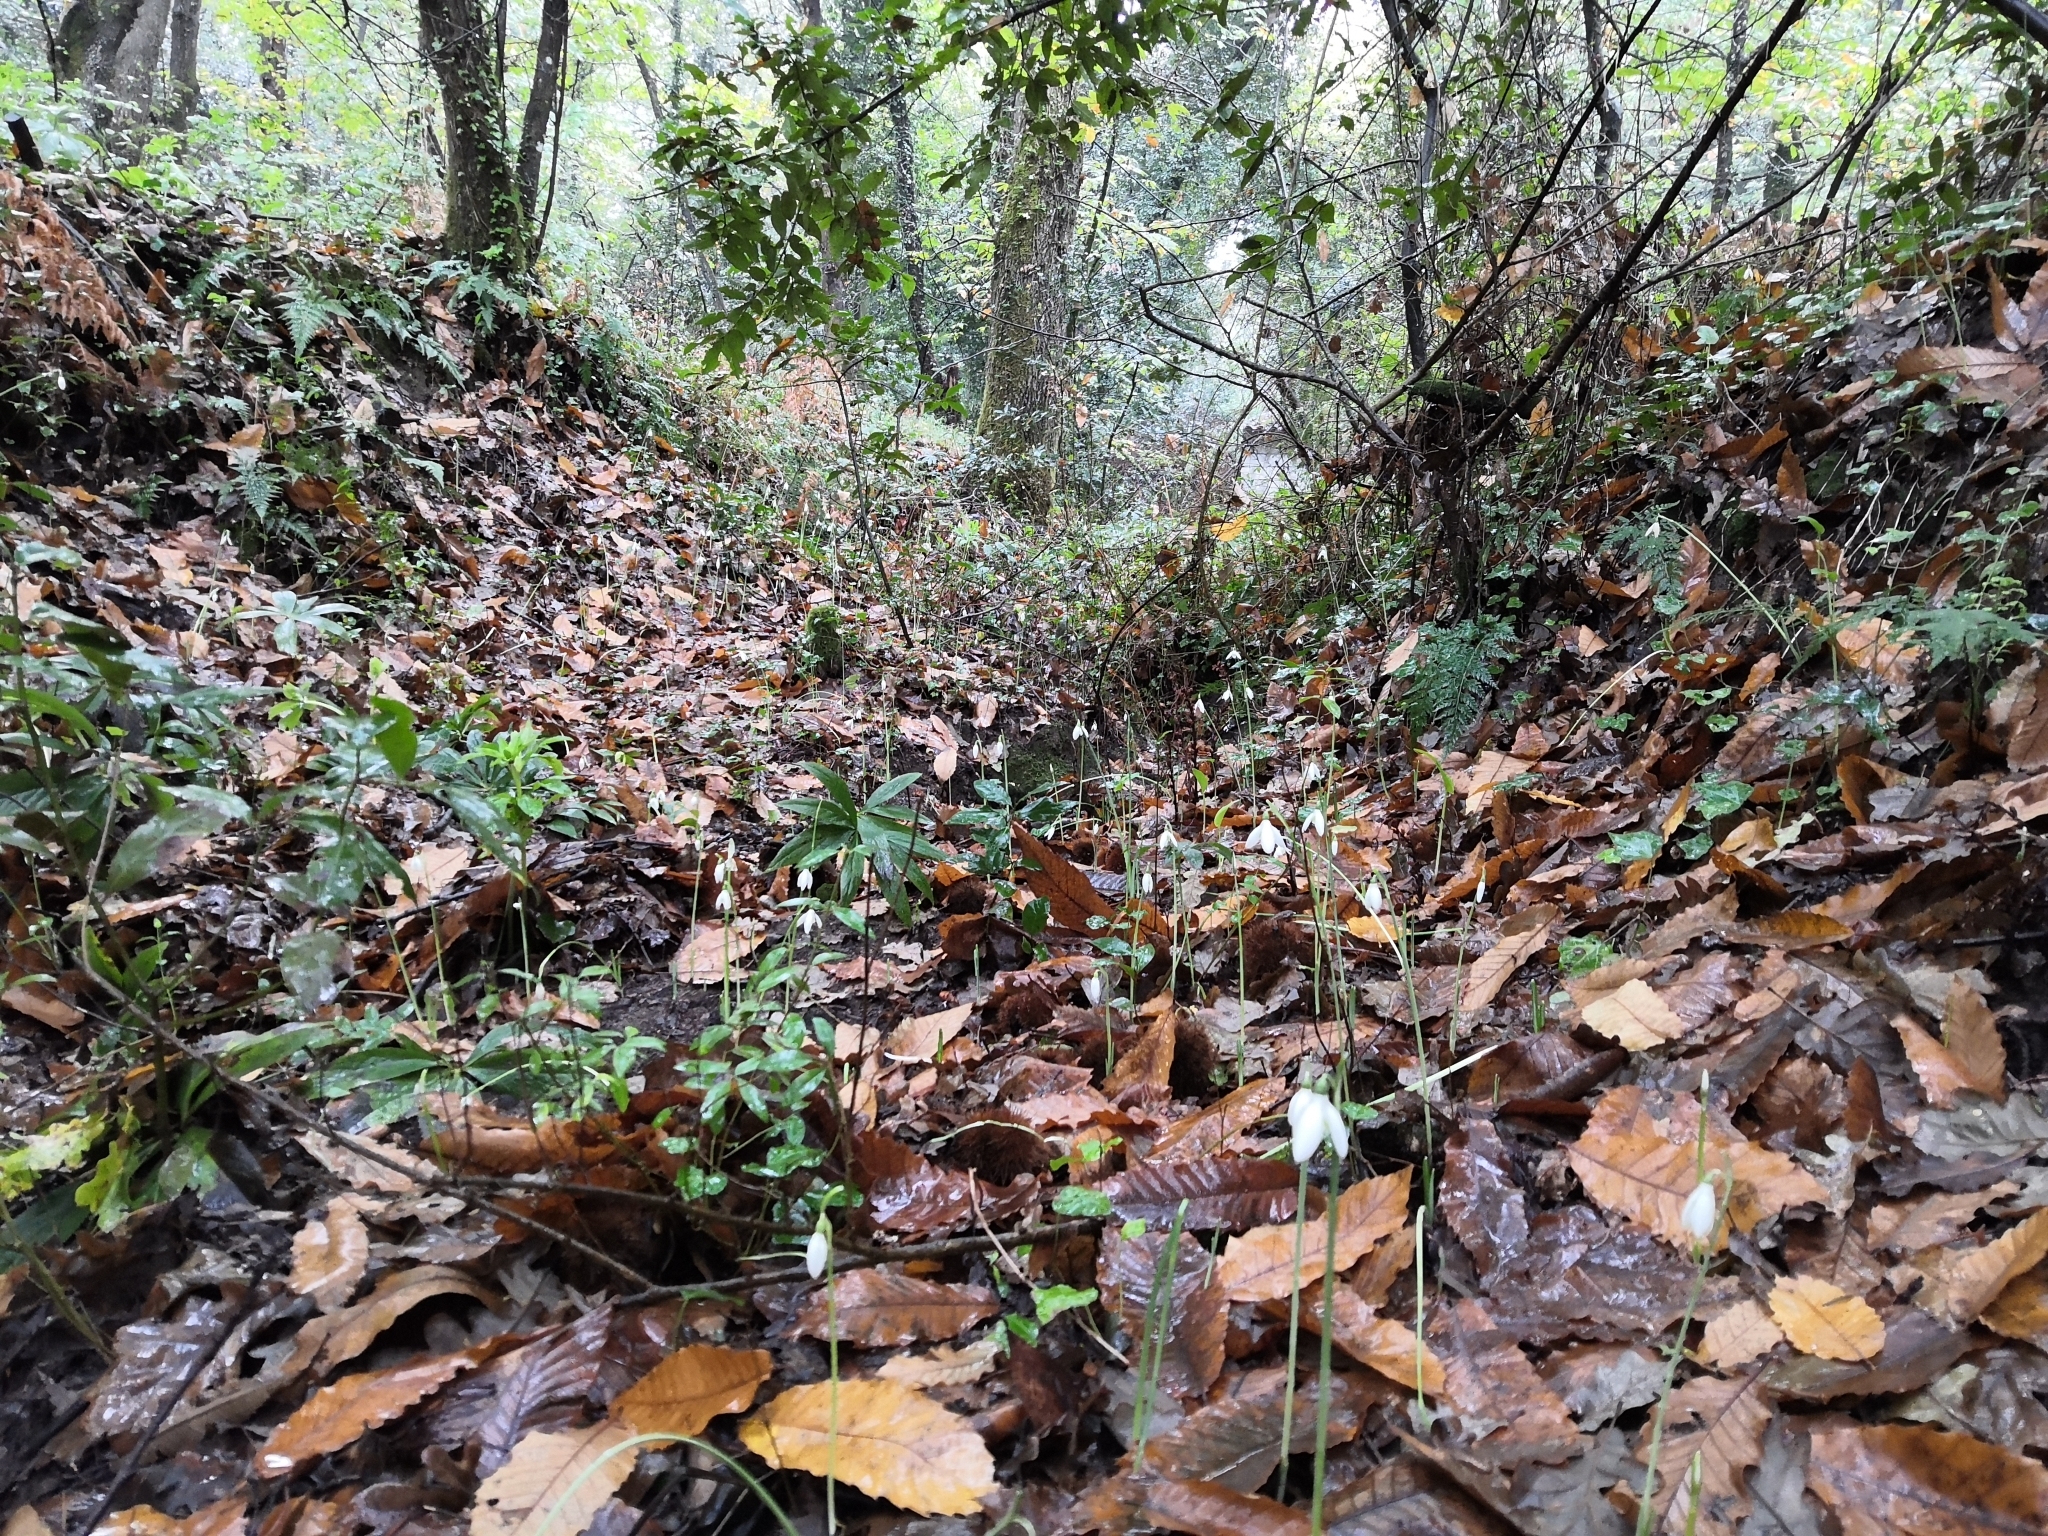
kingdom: Plantae
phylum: Tracheophyta
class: Liliopsida
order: Asparagales
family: Amaryllidaceae
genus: Galanthus
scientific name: Galanthus reginae-olgae
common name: Queen olga's snowdrop
